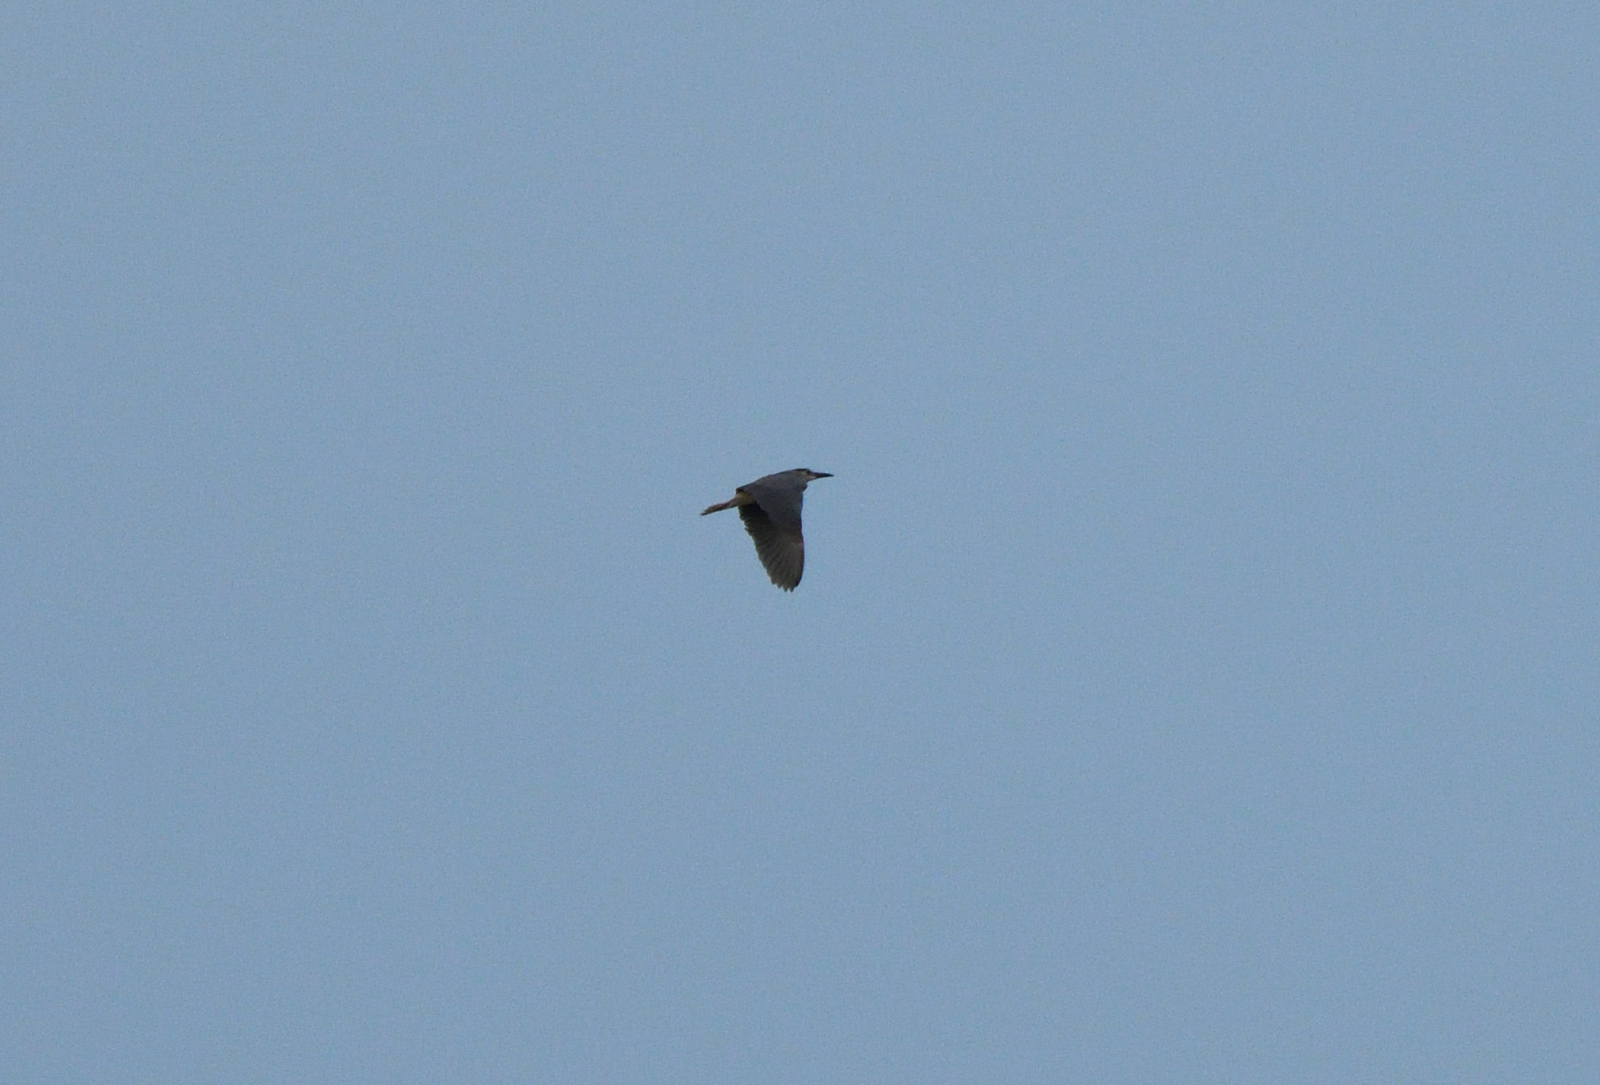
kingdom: Animalia
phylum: Chordata
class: Aves
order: Pelecaniformes
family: Ardeidae
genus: Nycticorax
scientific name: Nycticorax nycticorax
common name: Black-crowned night heron
